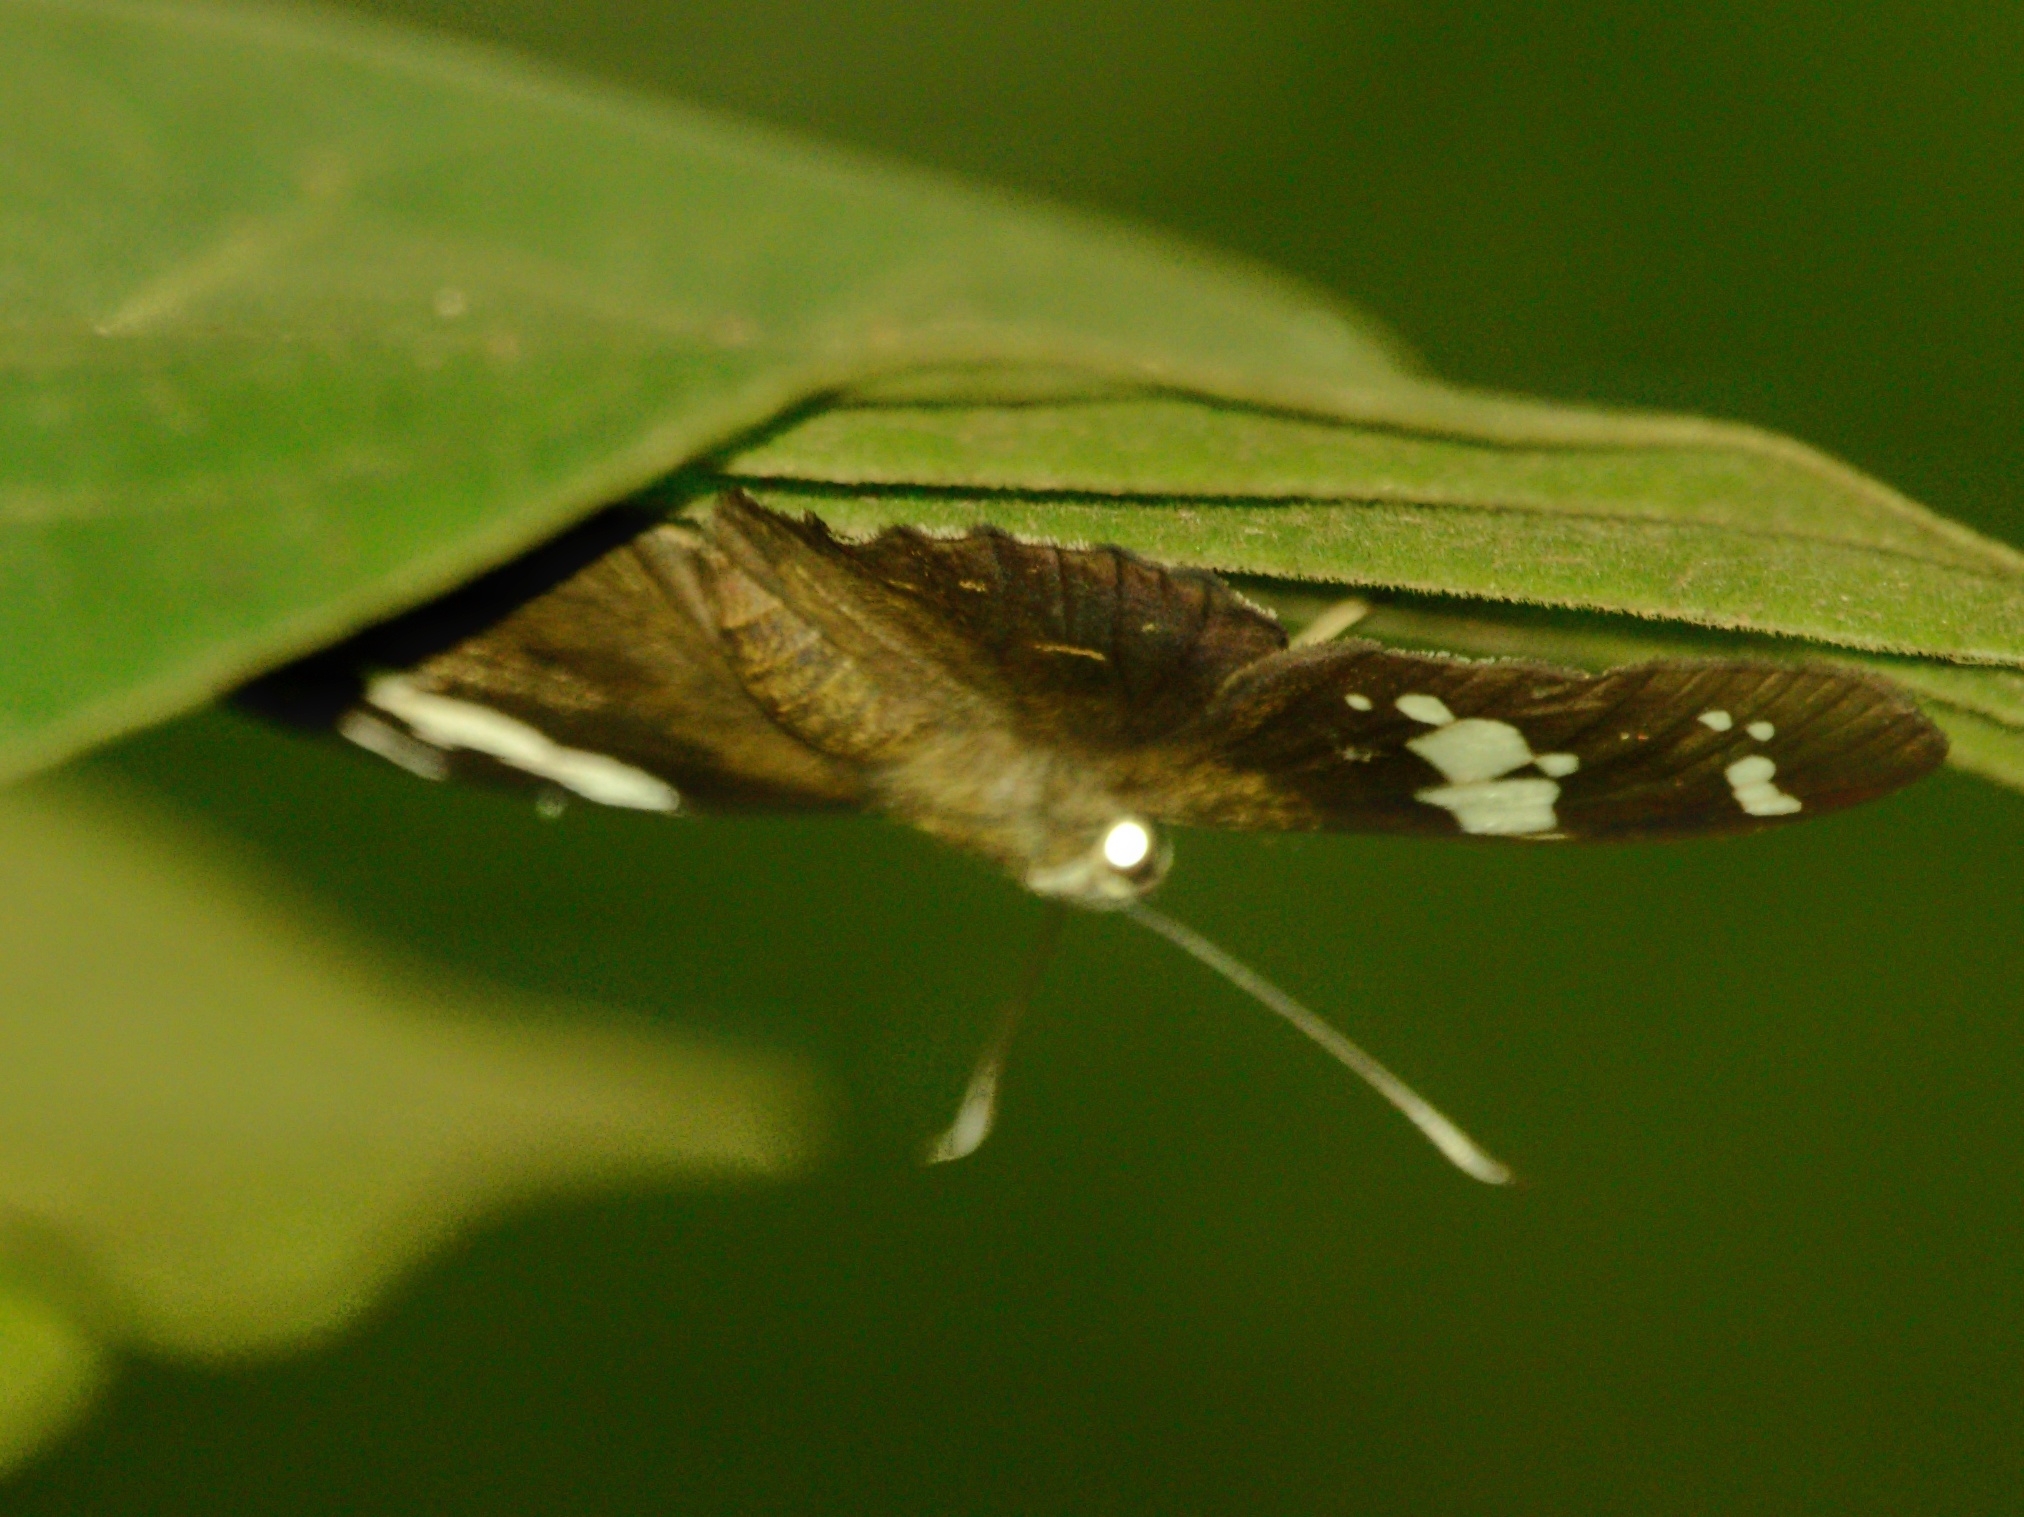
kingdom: Animalia
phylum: Arthropoda
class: Insecta
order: Lepidoptera
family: Hesperiidae
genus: Celaenorrhinus
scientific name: Celaenorrhinus leucocera
